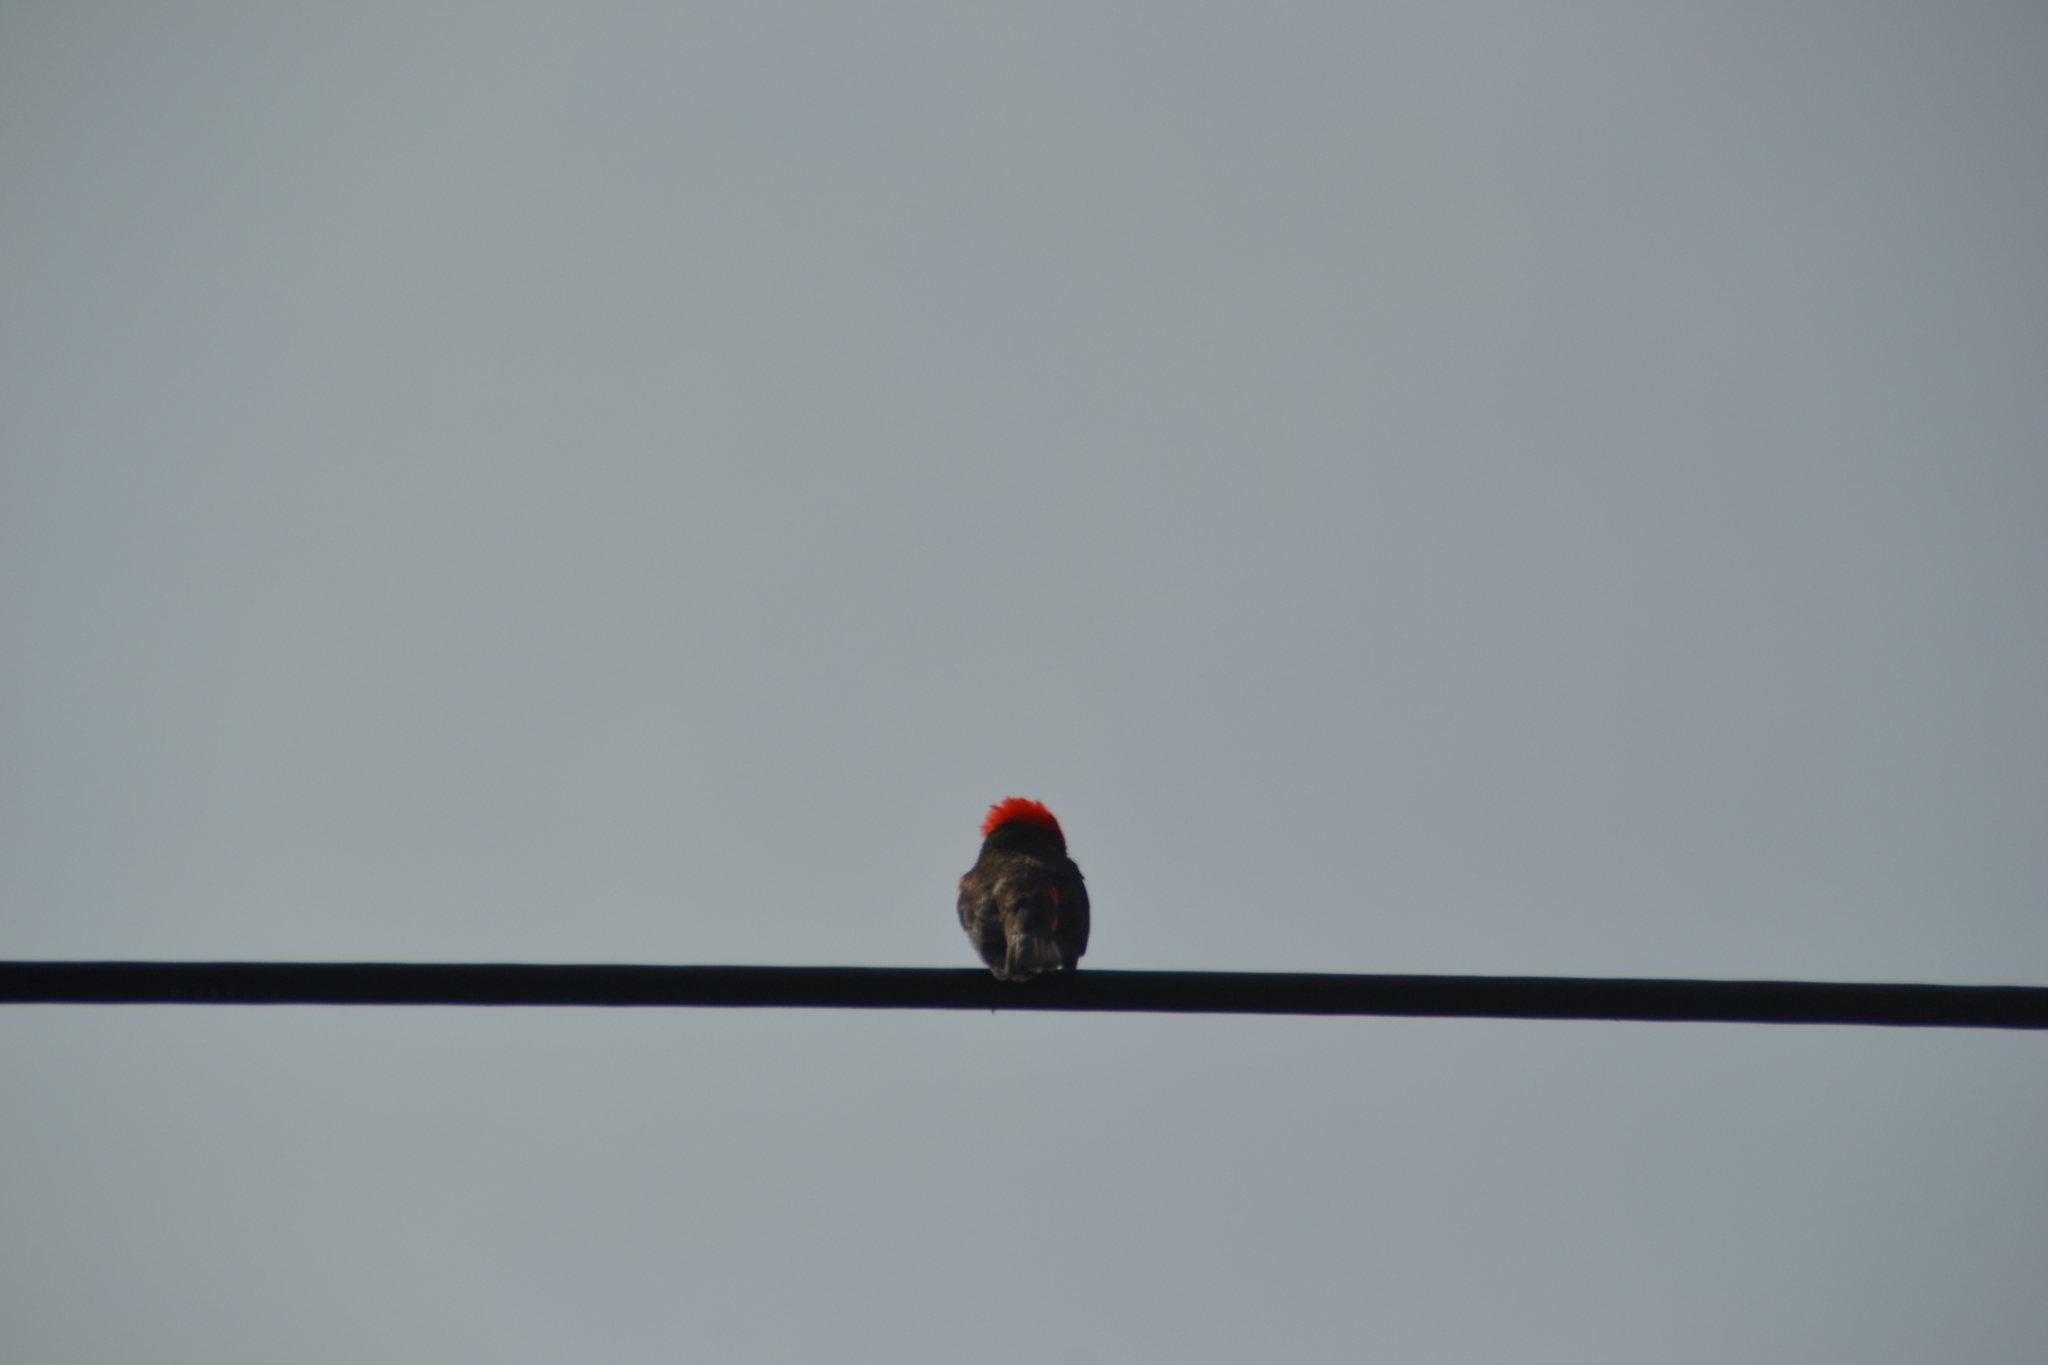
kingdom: Animalia
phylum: Chordata
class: Aves
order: Passeriformes
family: Tyrannidae
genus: Pyrocephalus
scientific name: Pyrocephalus rubinus
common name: Vermilion flycatcher
